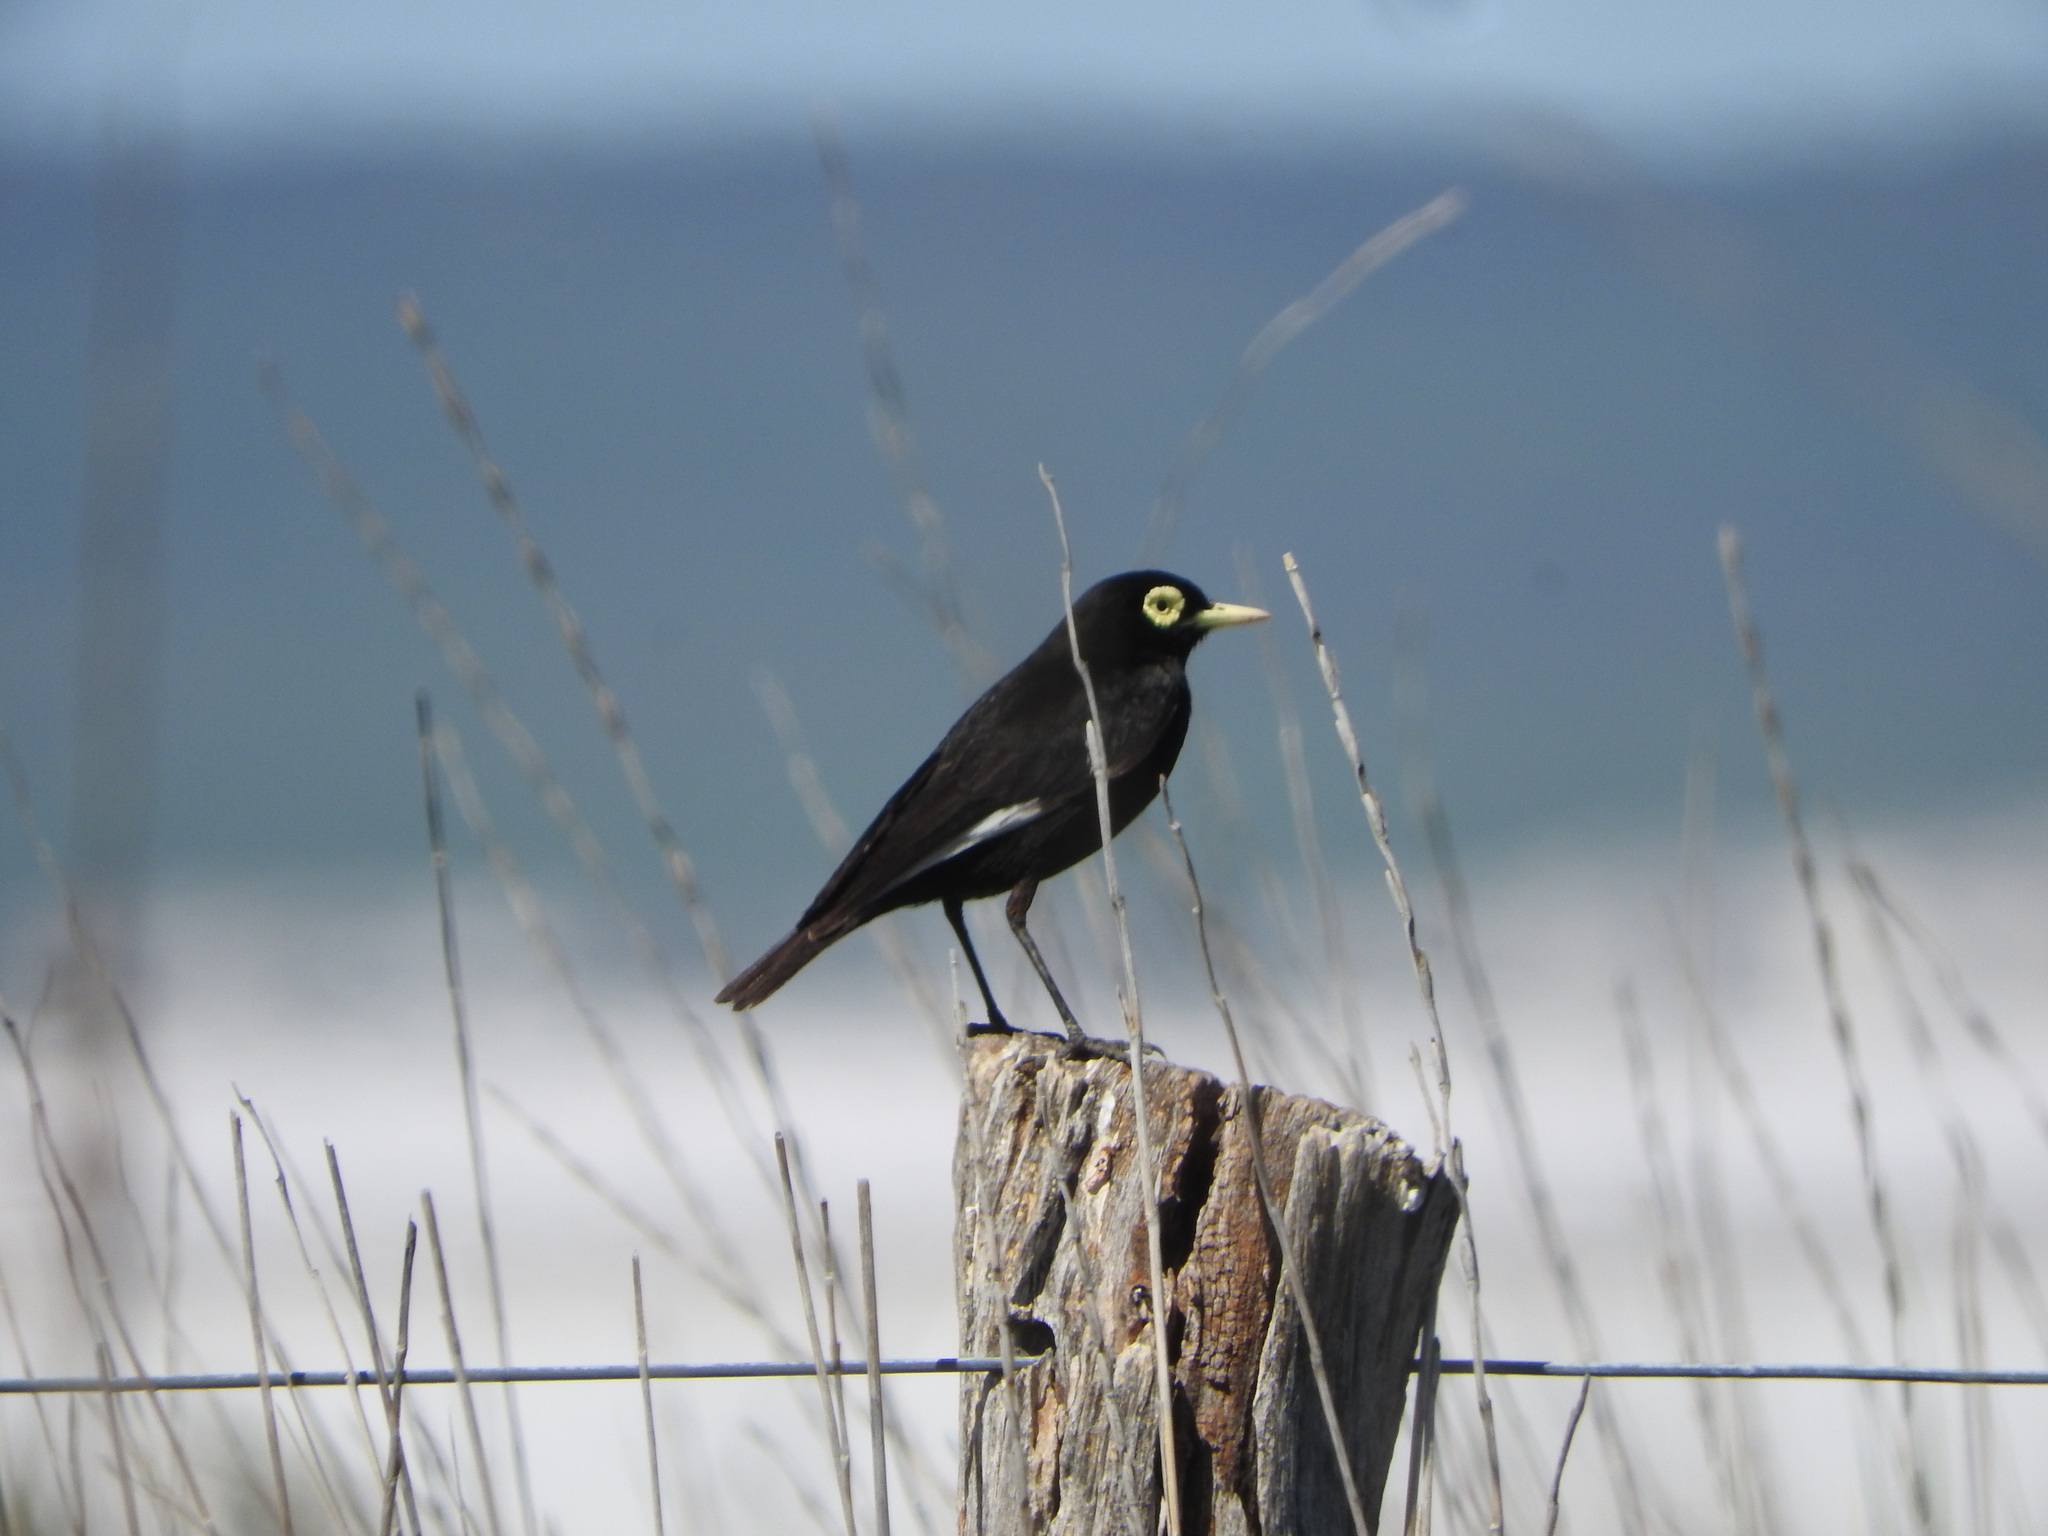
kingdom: Animalia
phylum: Chordata
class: Aves
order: Passeriformes
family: Tyrannidae
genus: Hymenops
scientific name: Hymenops perspicillatus
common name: Spectacled tyrant
